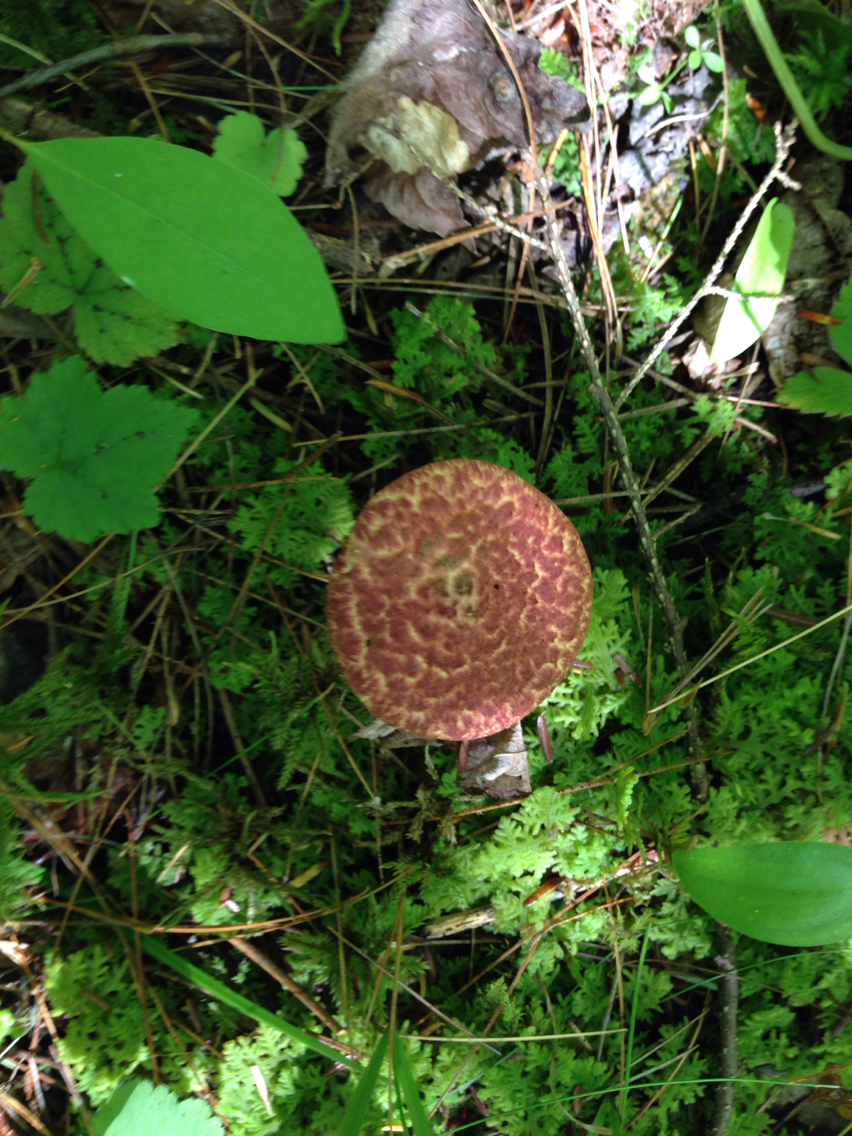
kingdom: Fungi
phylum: Basidiomycota
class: Agaricomycetes
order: Boletales
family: Suillaceae
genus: Suillus
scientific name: Suillus spraguei
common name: Painted suillus
